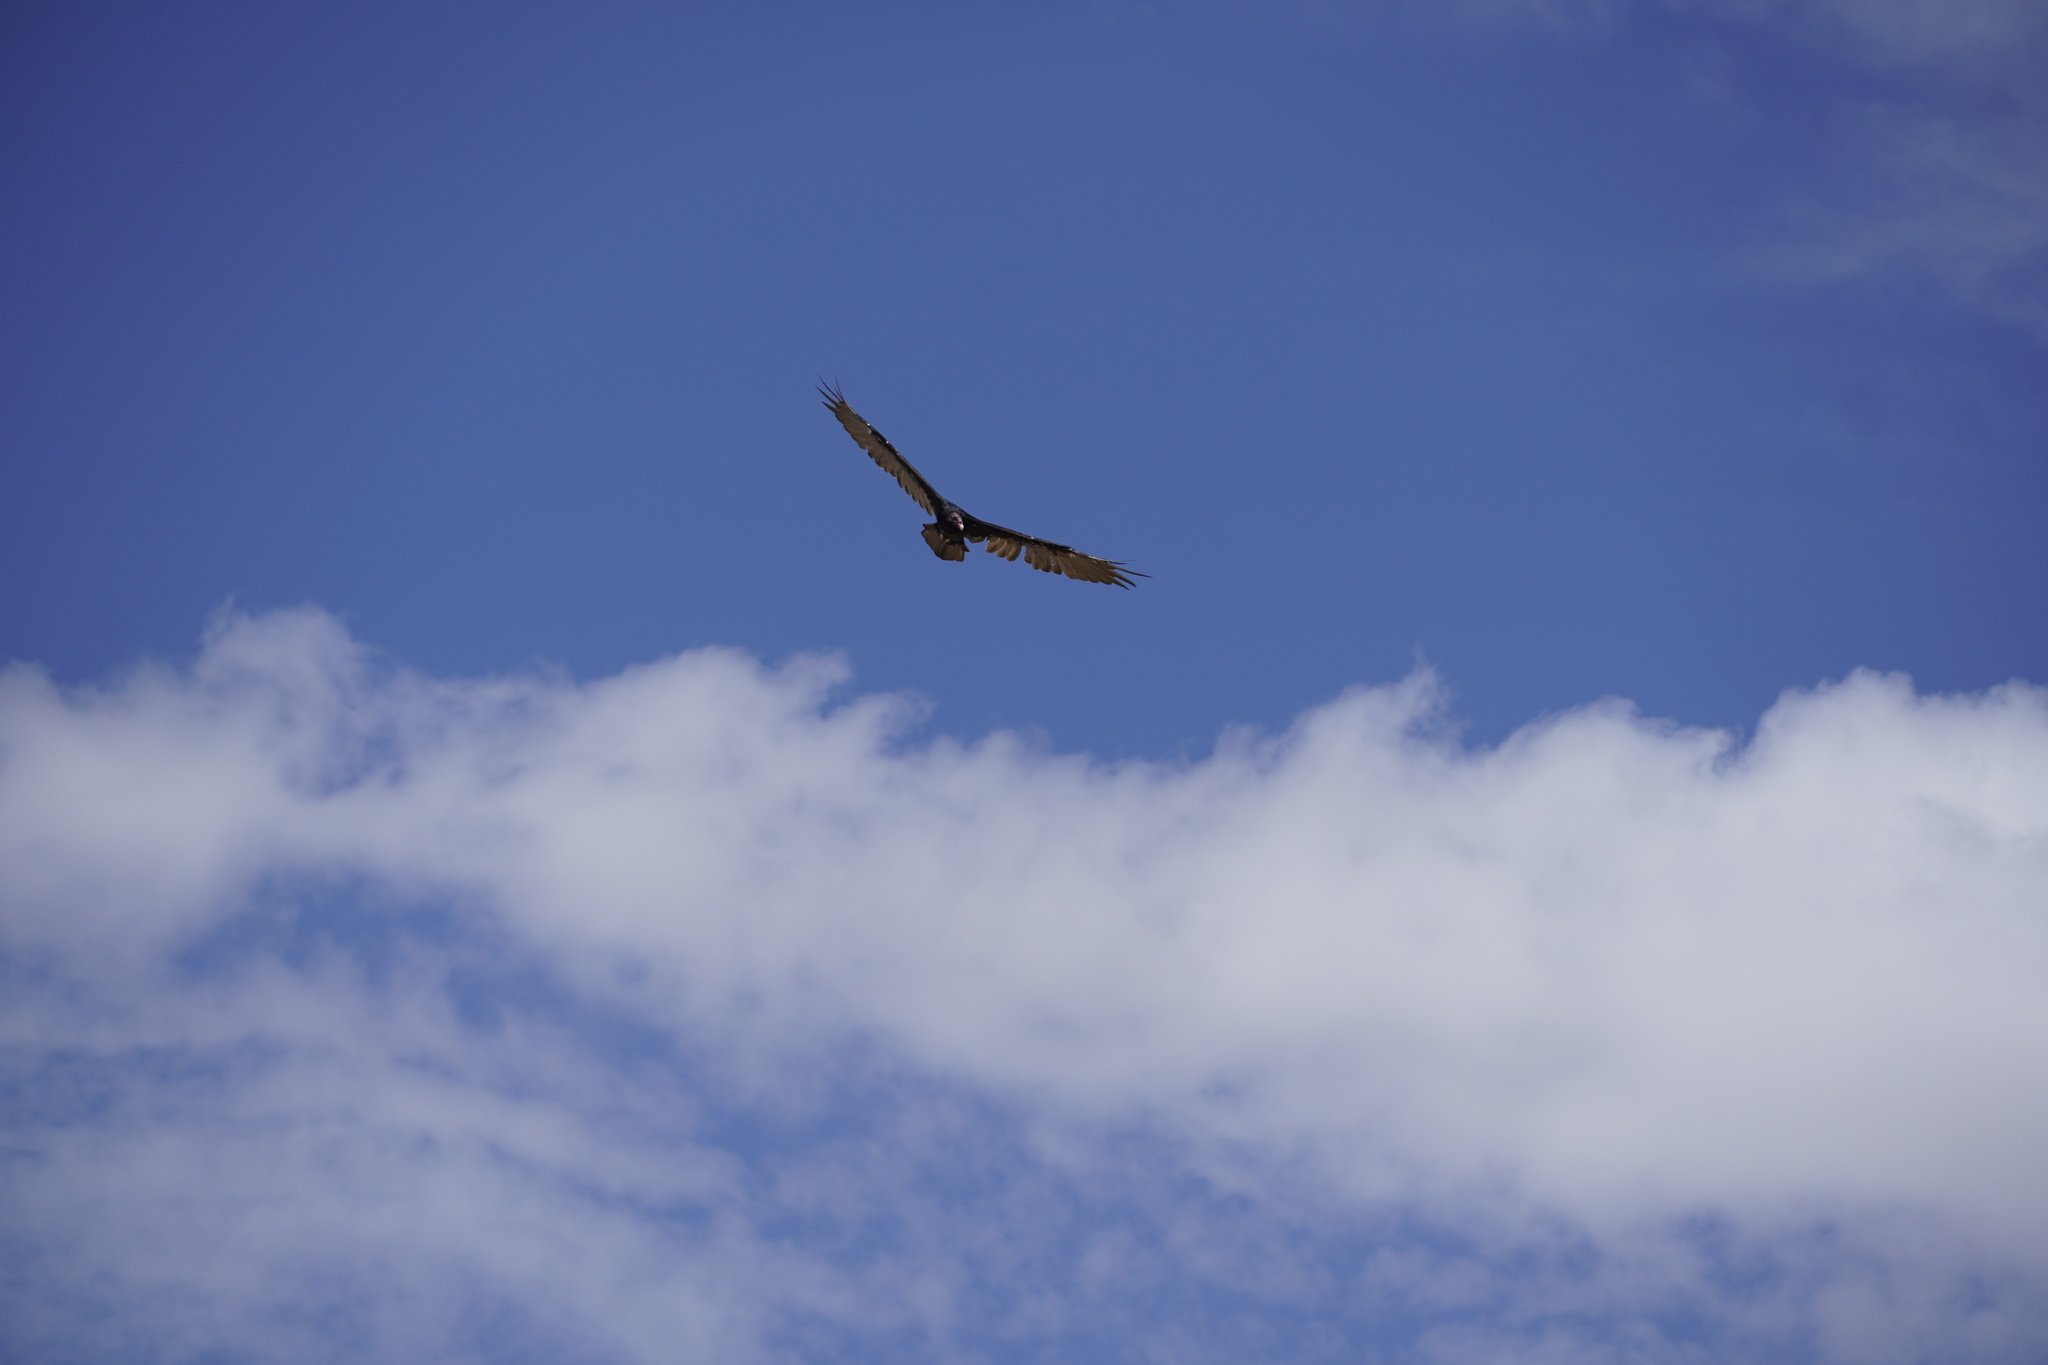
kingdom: Animalia
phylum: Chordata
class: Aves
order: Accipitriformes
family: Cathartidae
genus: Cathartes
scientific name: Cathartes aura
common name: Turkey vulture
